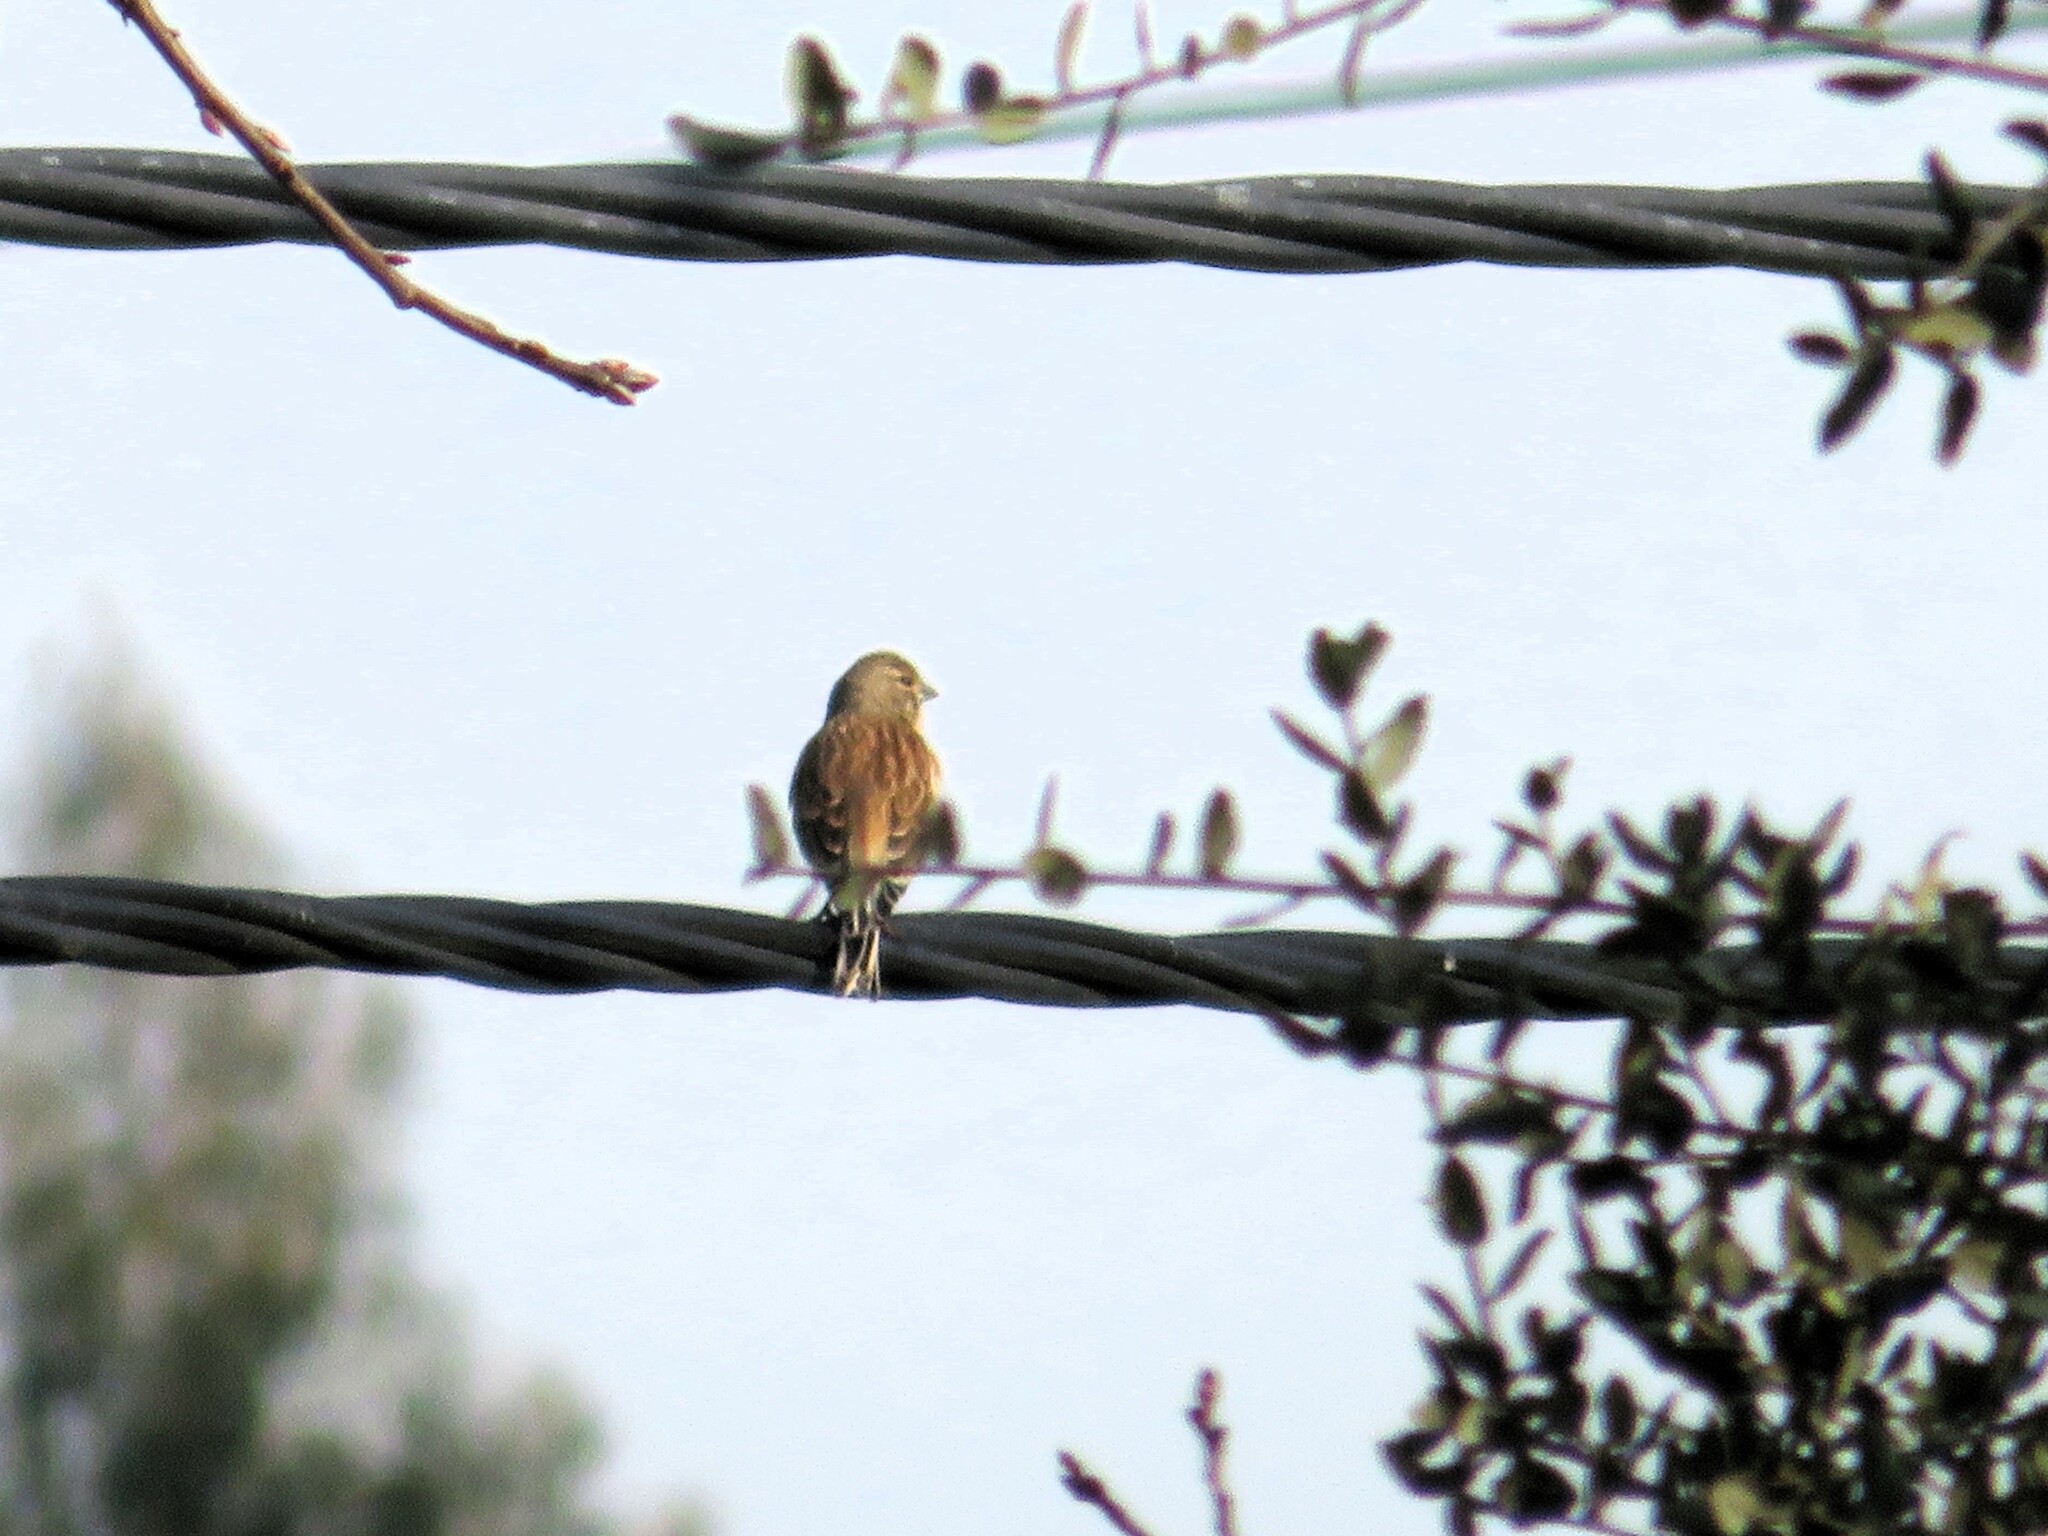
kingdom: Animalia
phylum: Chordata
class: Aves
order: Passeriformes
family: Fringillidae
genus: Linaria
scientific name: Linaria cannabina
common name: Common linnet
